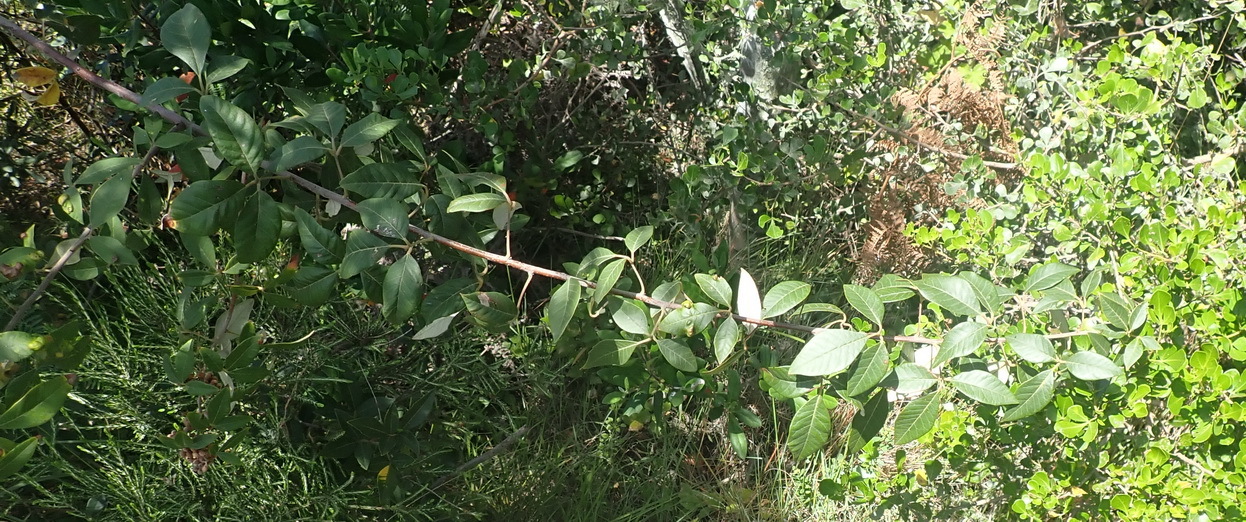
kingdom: Plantae
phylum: Tracheophyta
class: Magnoliopsida
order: Sapindales
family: Anacardiaceae
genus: Searsia
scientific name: Searsia tomentosa
